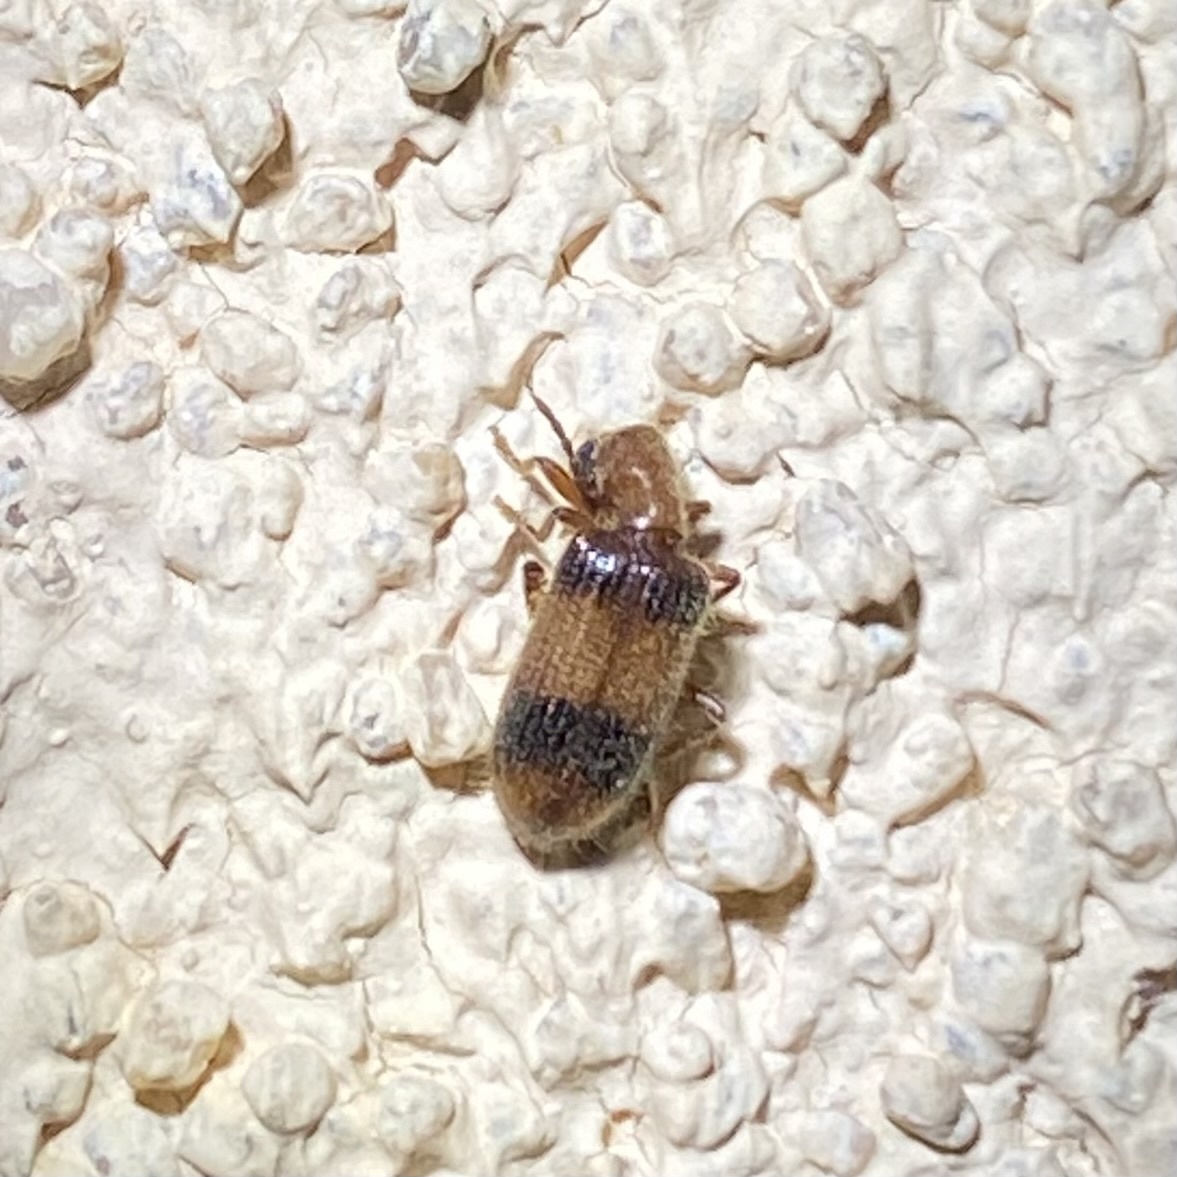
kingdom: Animalia
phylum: Arthropoda
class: Insecta
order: Coleoptera
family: Cleridae
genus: Cymatodera
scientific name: Cymatodera puncticollis
